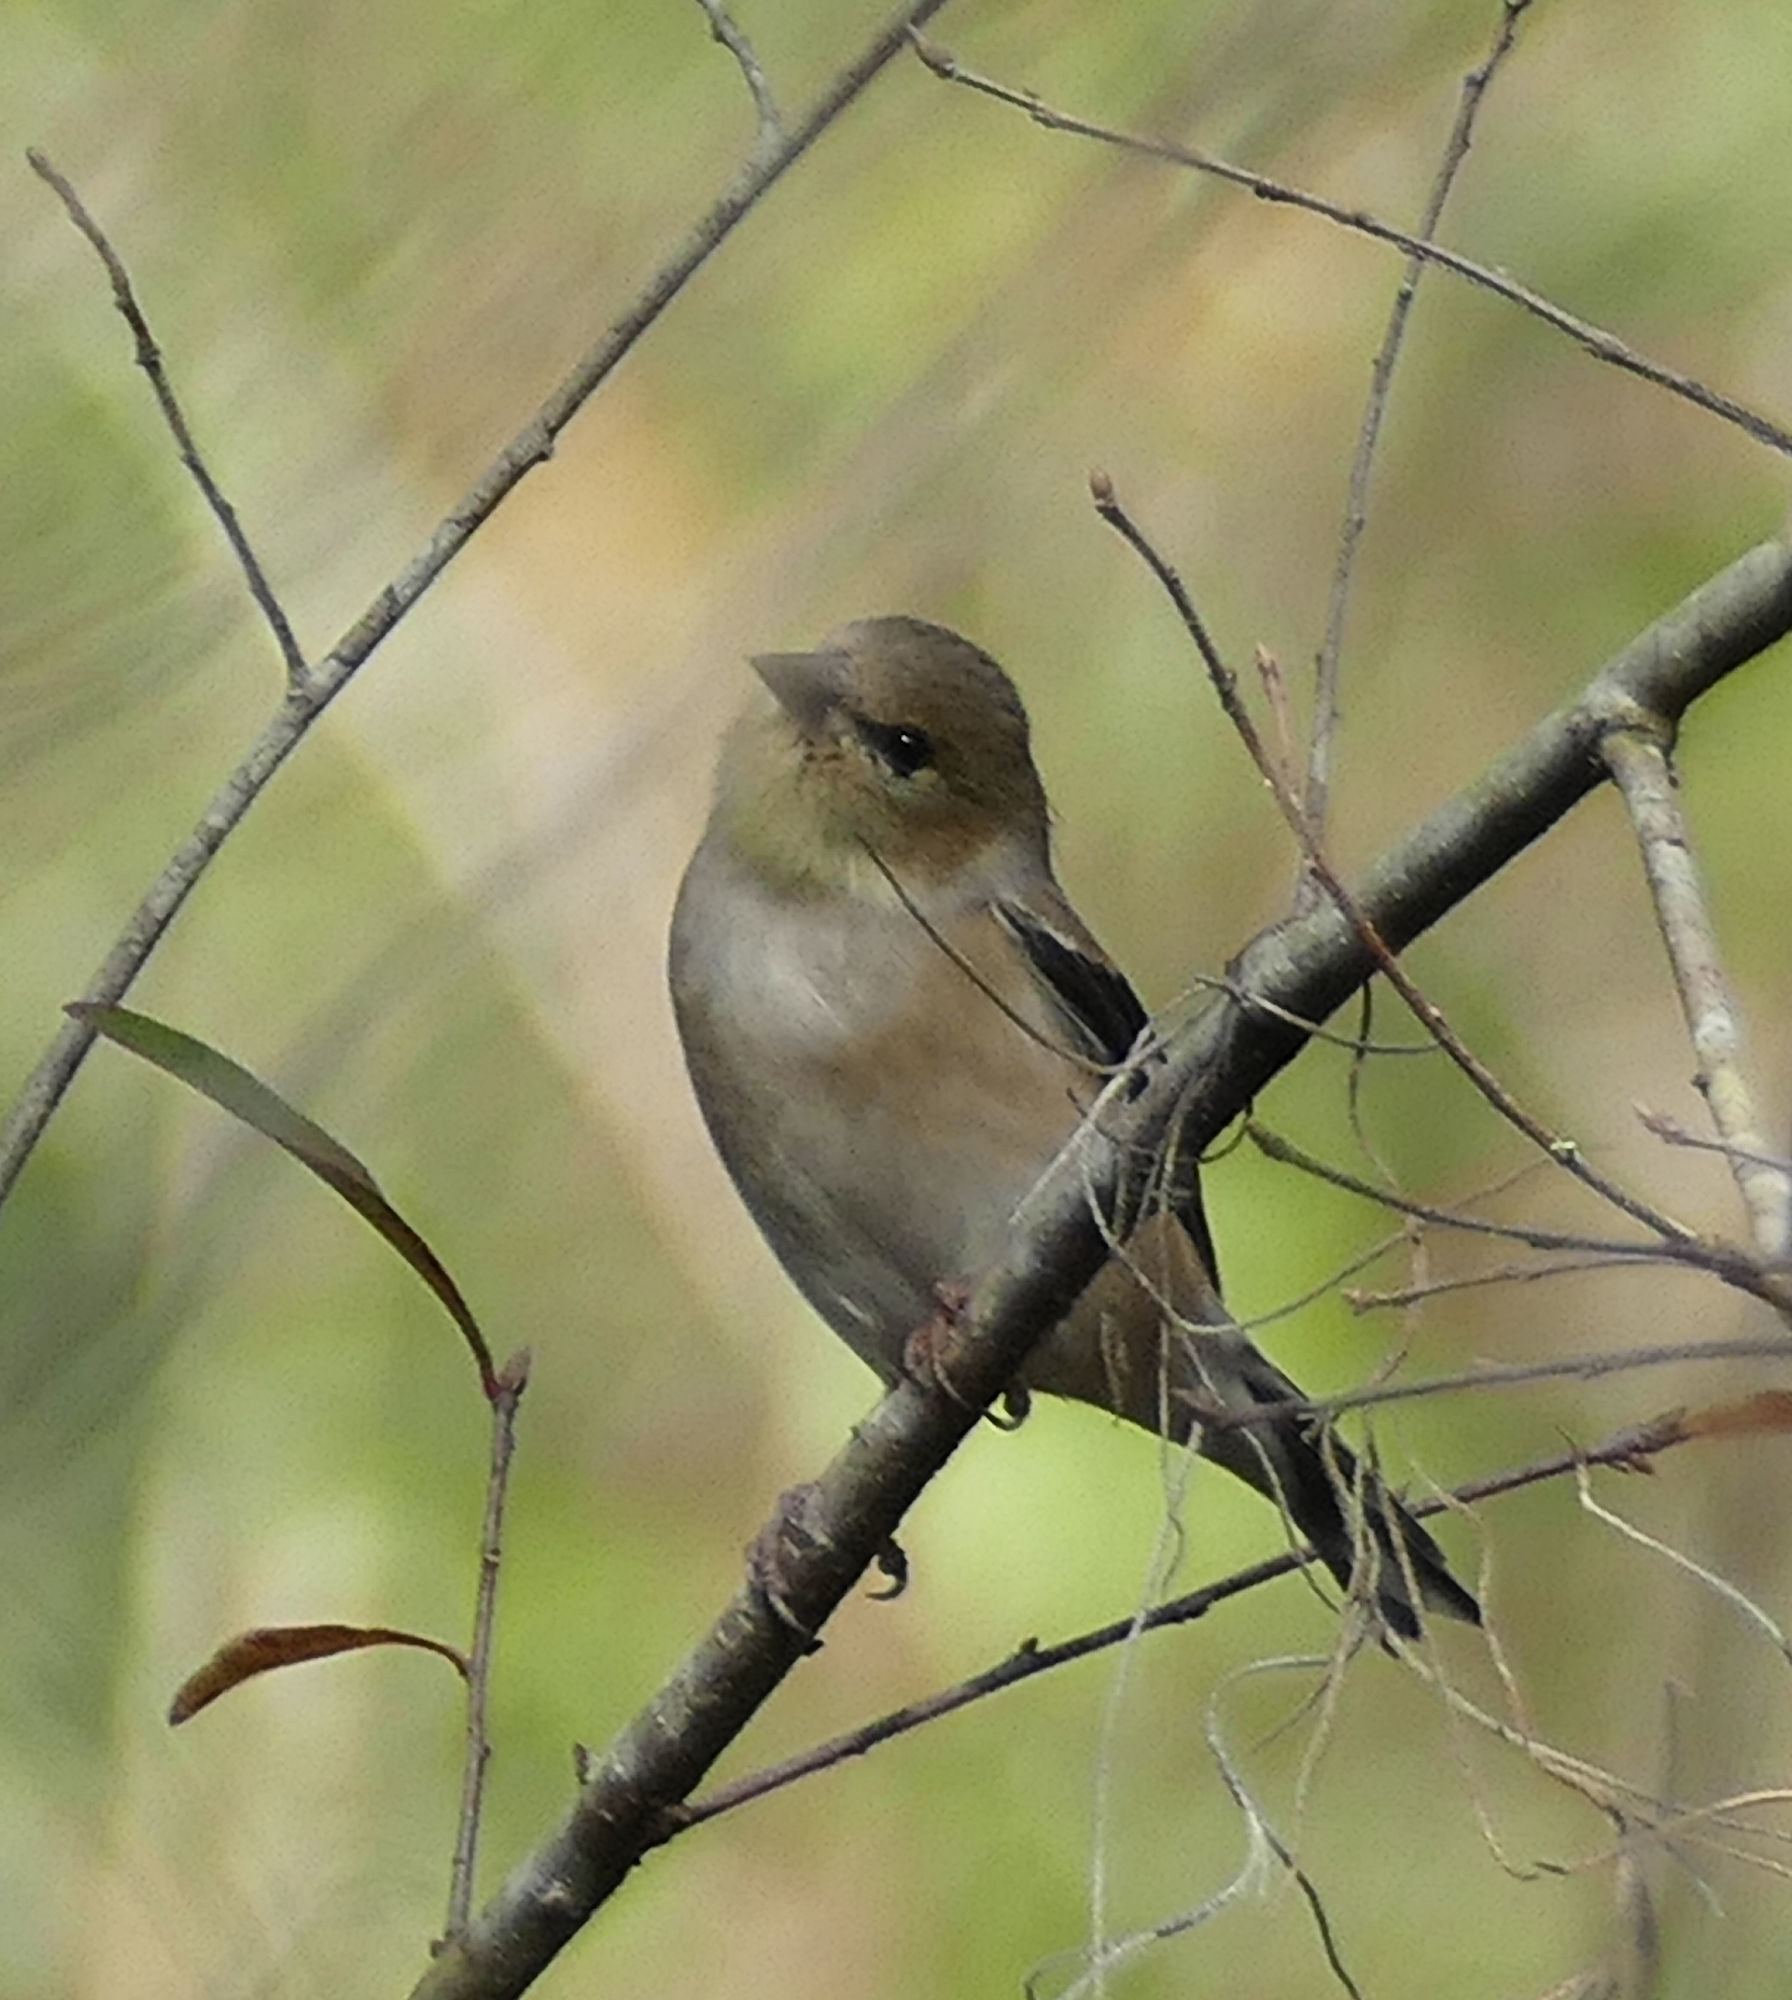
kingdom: Animalia
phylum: Chordata
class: Aves
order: Passeriformes
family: Fringillidae
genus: Spinus
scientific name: Spinus tristis
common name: American goldfinch
